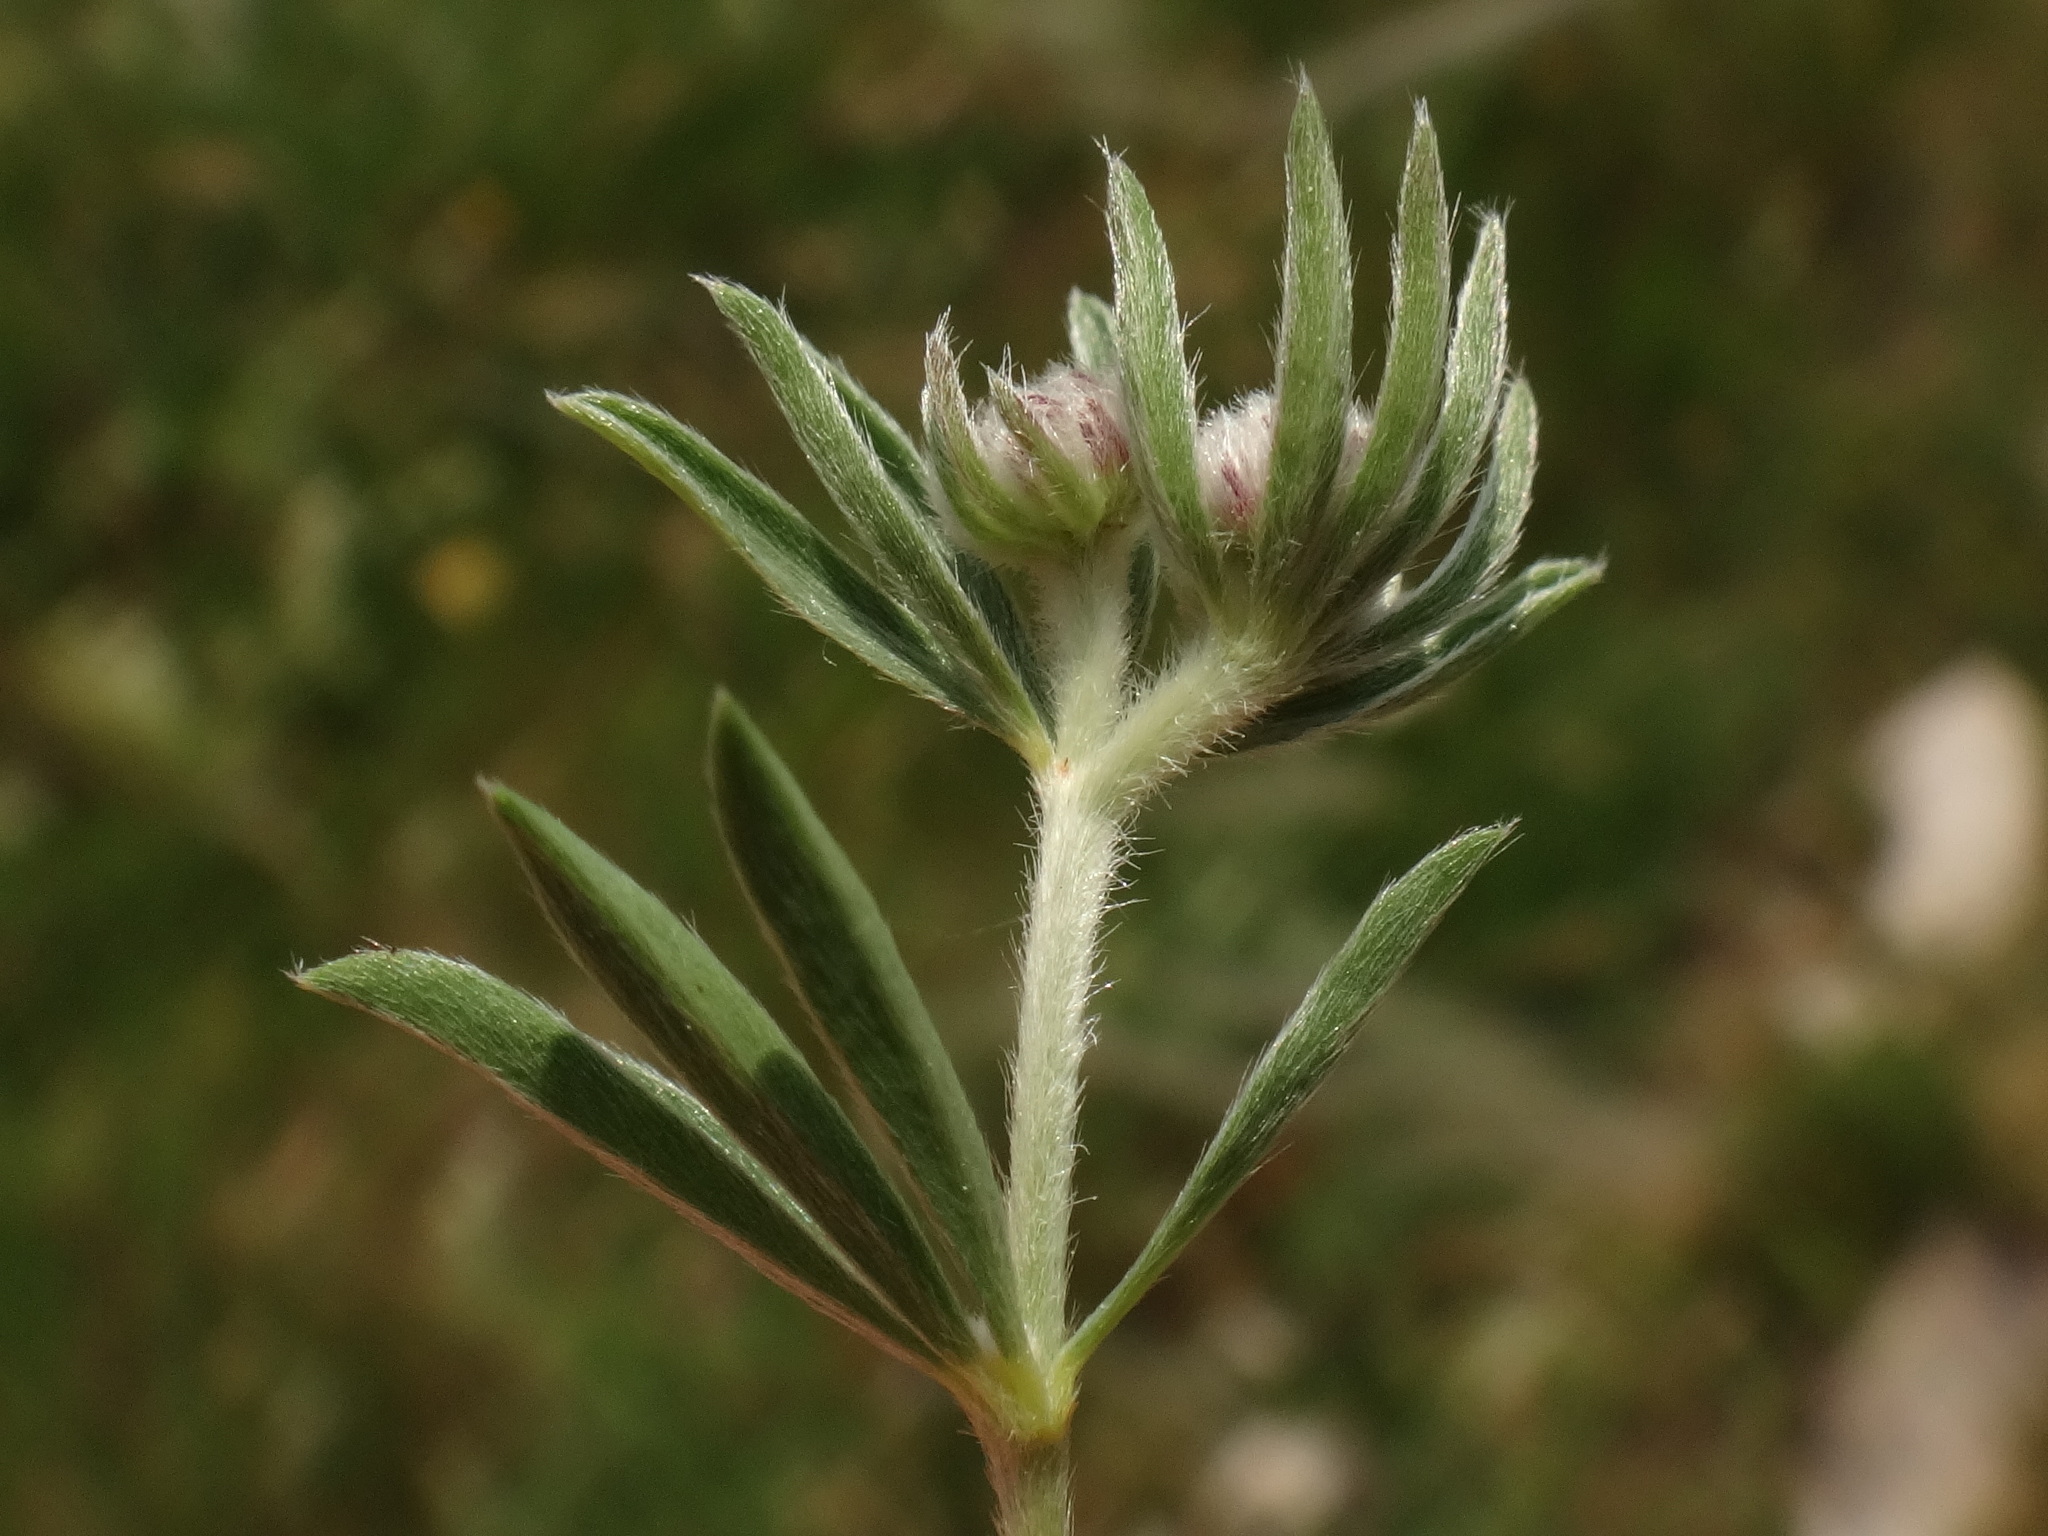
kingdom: Plantae
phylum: Tracheophyta
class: Magnoliopsida
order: Fabales
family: Fabaceae
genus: Lotus
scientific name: Lotus germanicus
